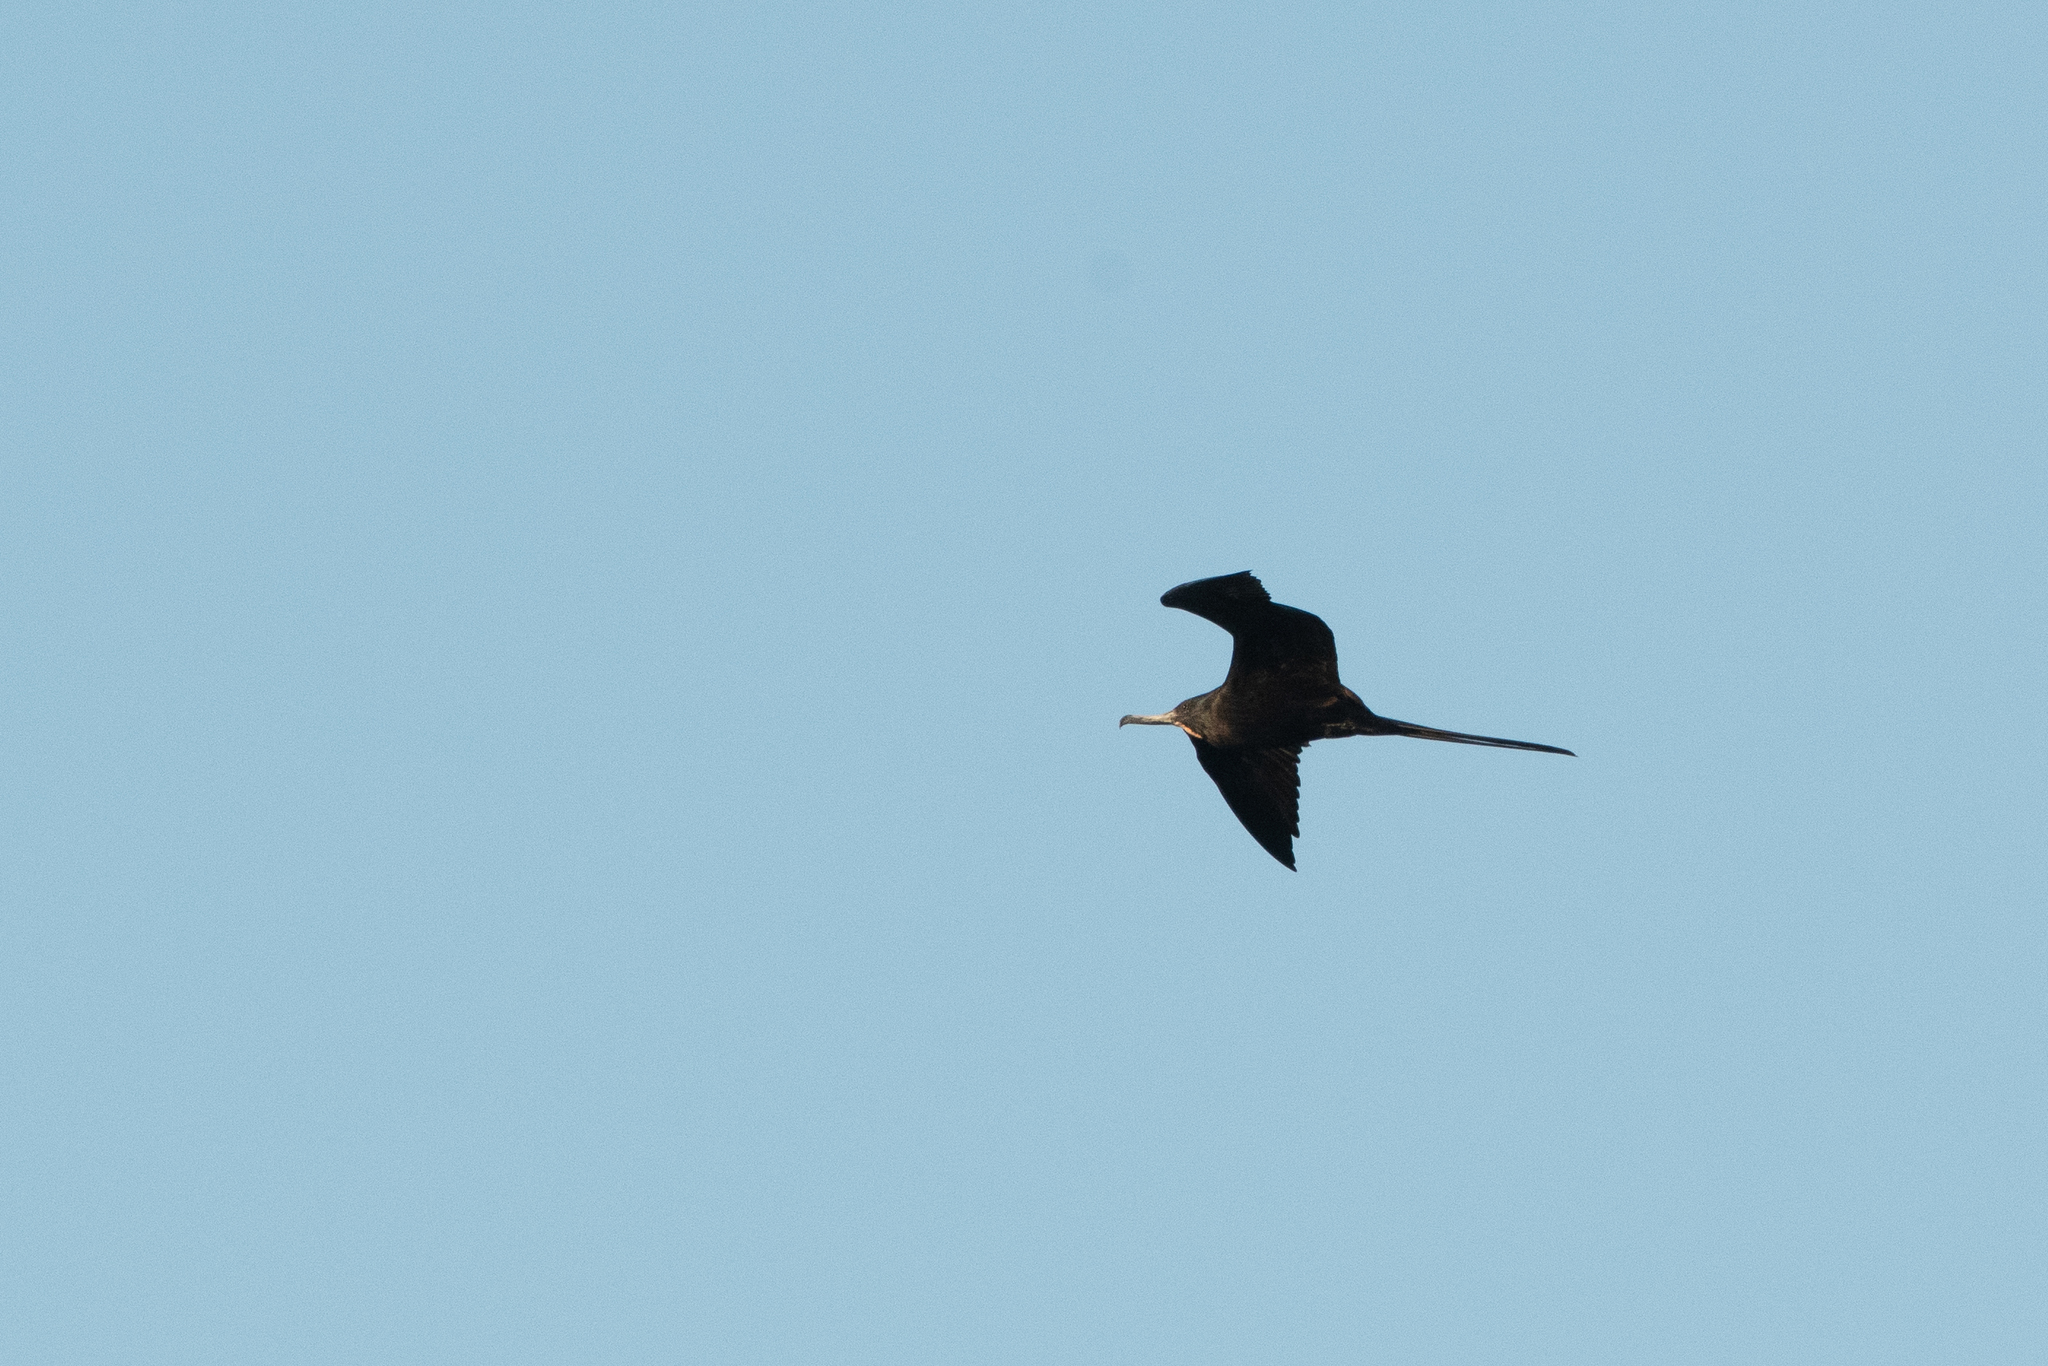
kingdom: Animalia
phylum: Chordata
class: Aves
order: Suliformes
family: Fregatidae
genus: Fregata
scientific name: Fregata magnificens
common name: Magnificent frigatebird
